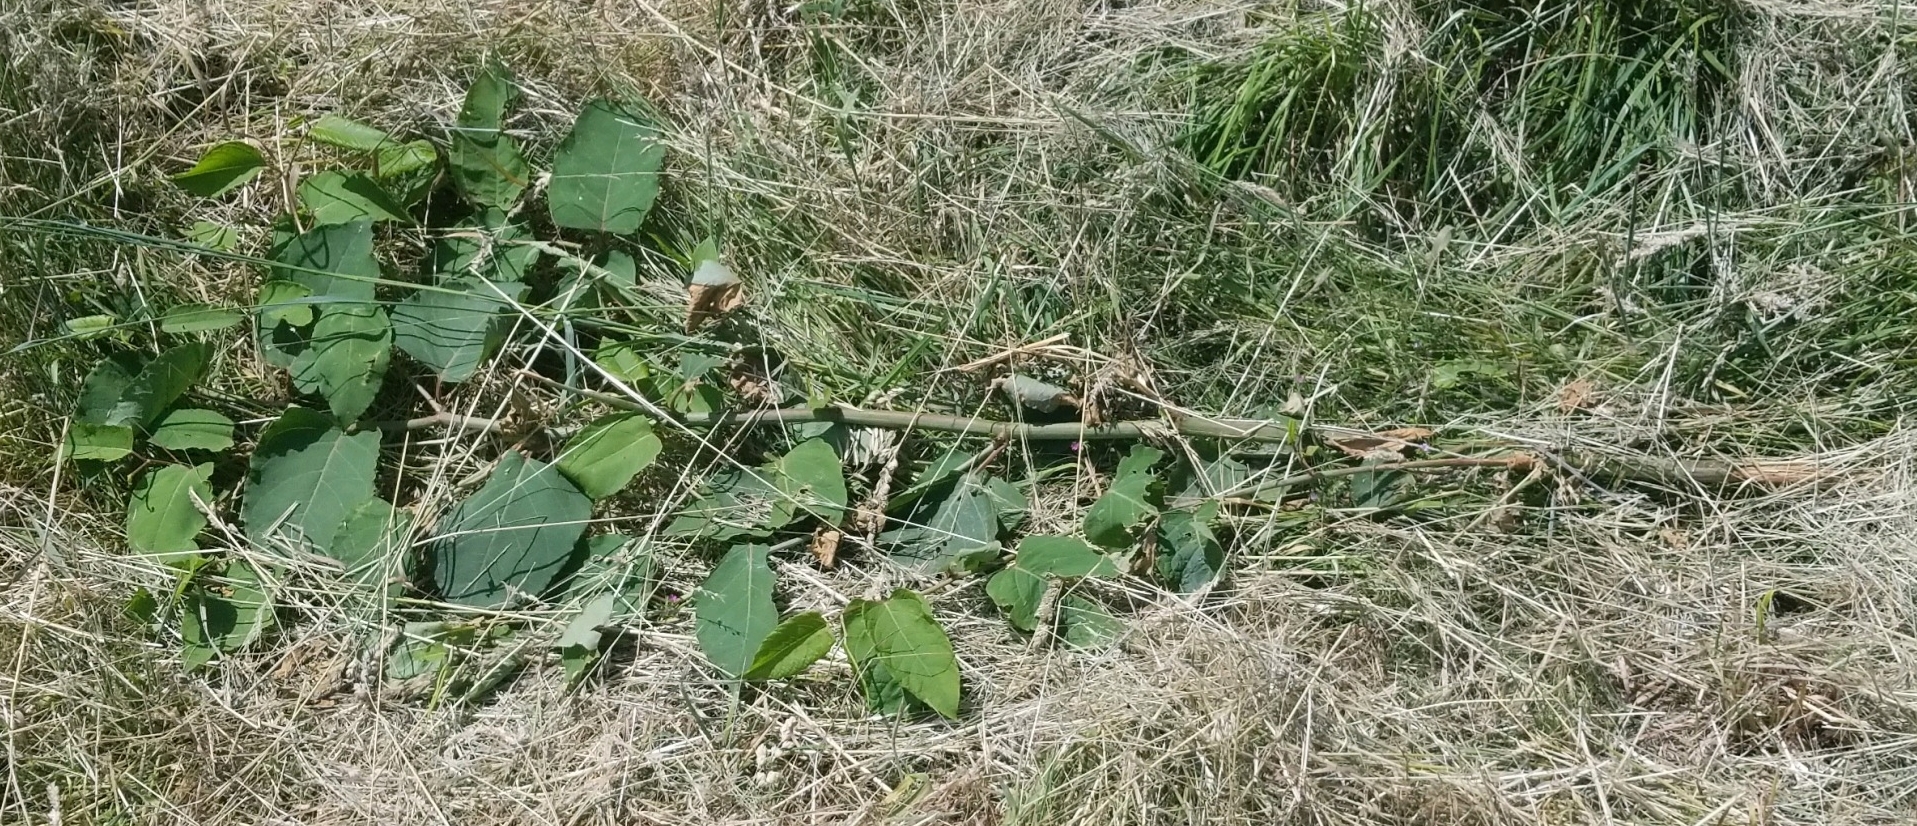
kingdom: Plantae
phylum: Tracheophyta
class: Magnoliopsida
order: Caryophyllales
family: Polygonaceae
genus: Reynoutria
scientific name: Reynoutria bohemica
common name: Bohemian knotweed
